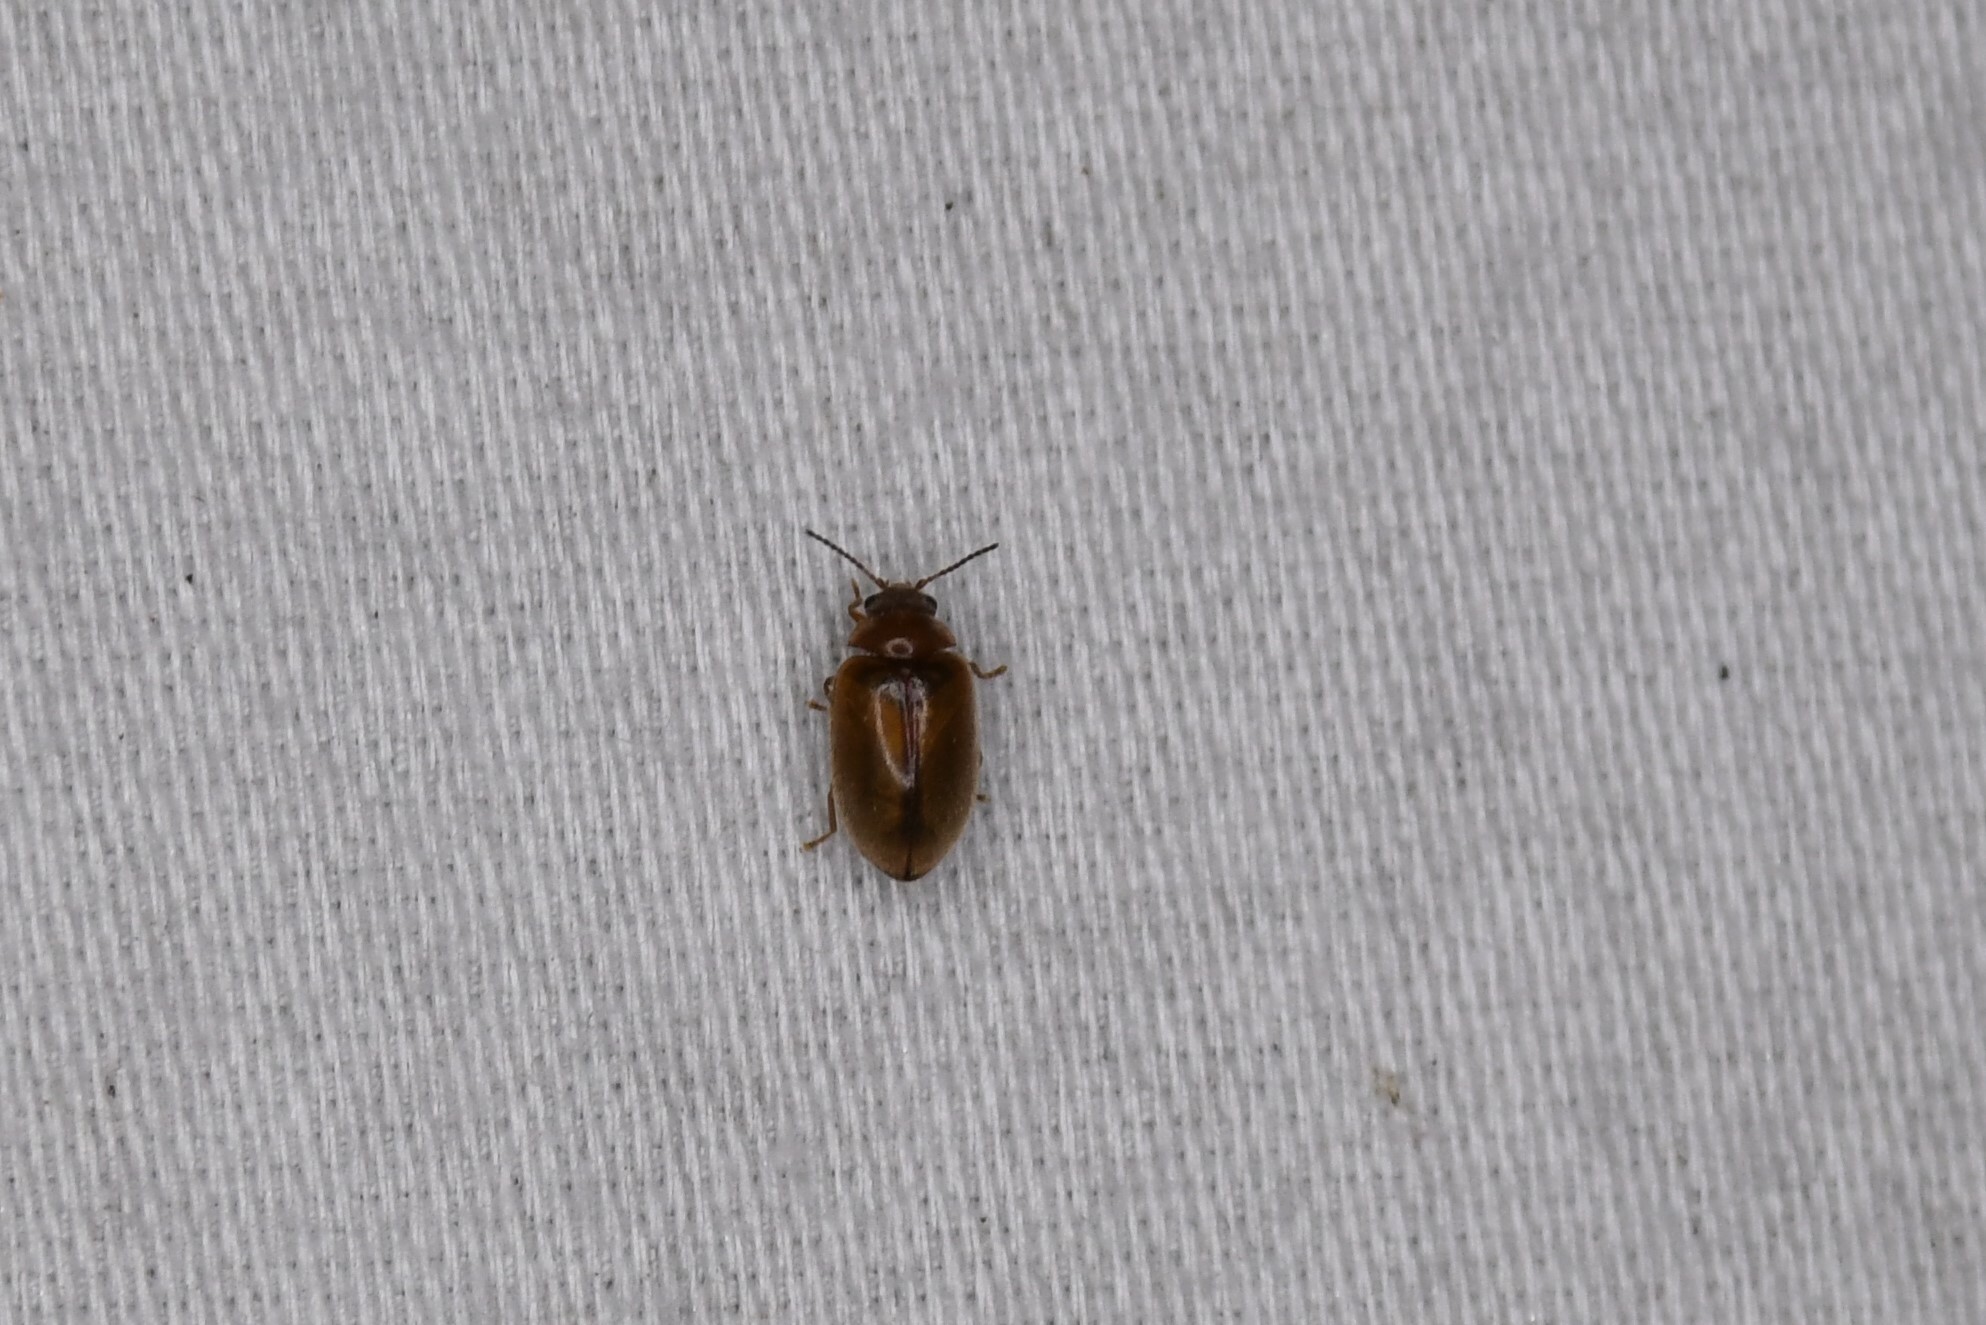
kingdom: Animalia
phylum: Arthropoda
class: Insecta
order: Coleoptera
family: Scirtidae
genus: Contacyphon
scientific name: Contacyphon
